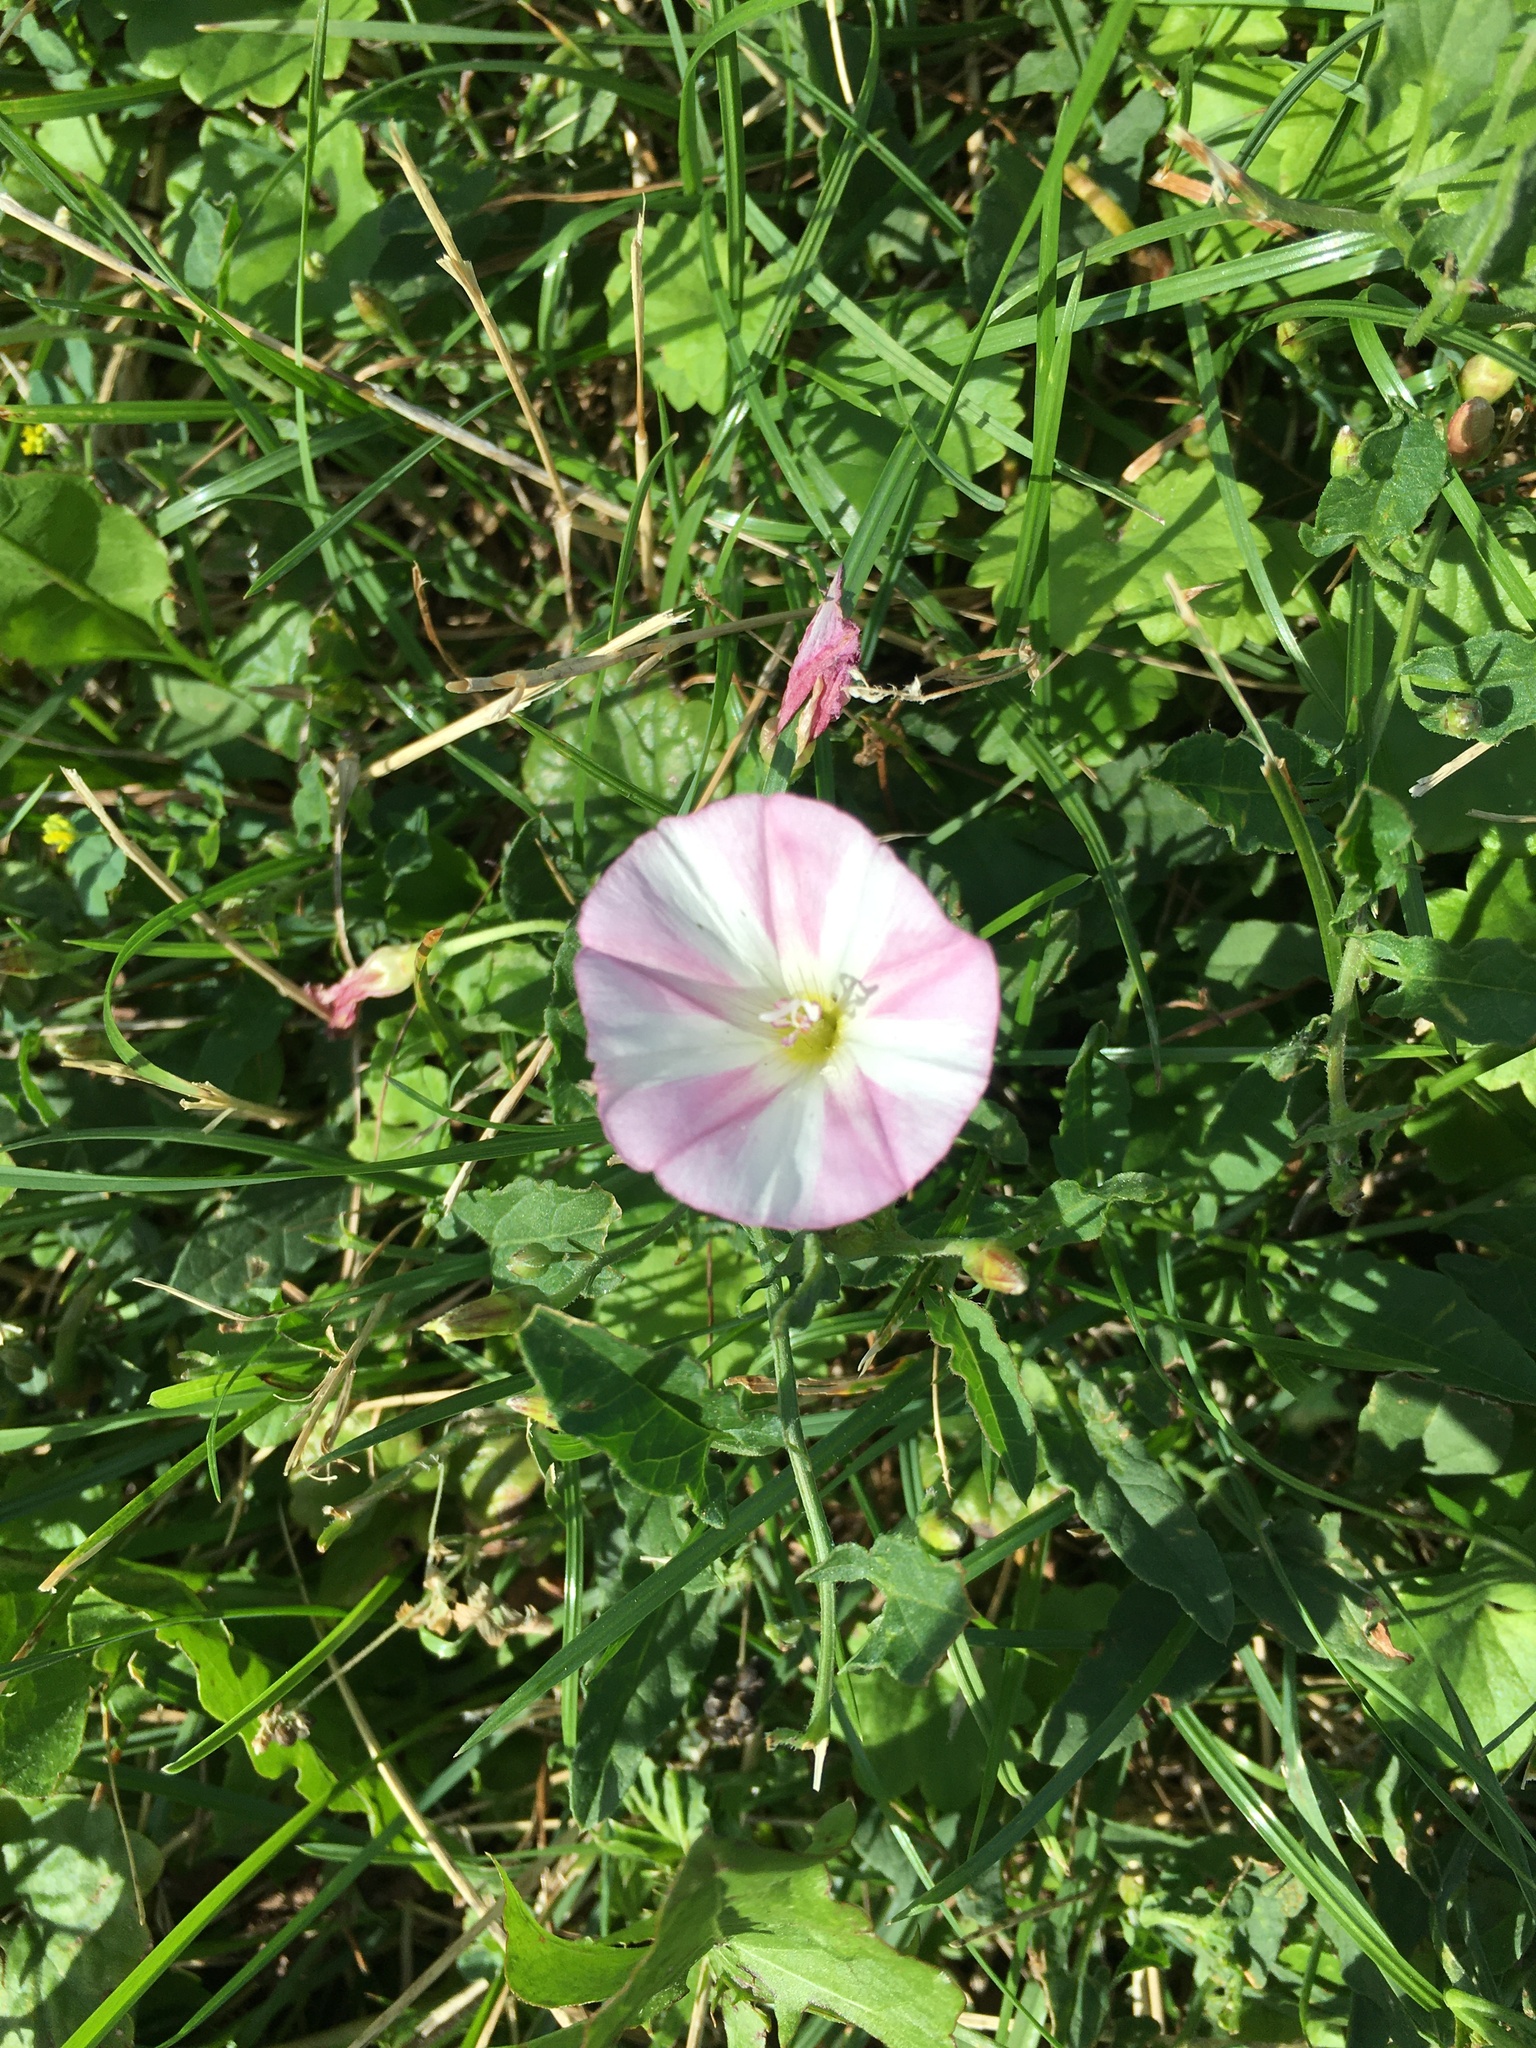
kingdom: Plantae
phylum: Tracheophyta
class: Magnoliopsida
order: Solanales
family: Convolvulaceae
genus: Convolvulus
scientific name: Convolvulus arvensis
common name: Field bindweed
